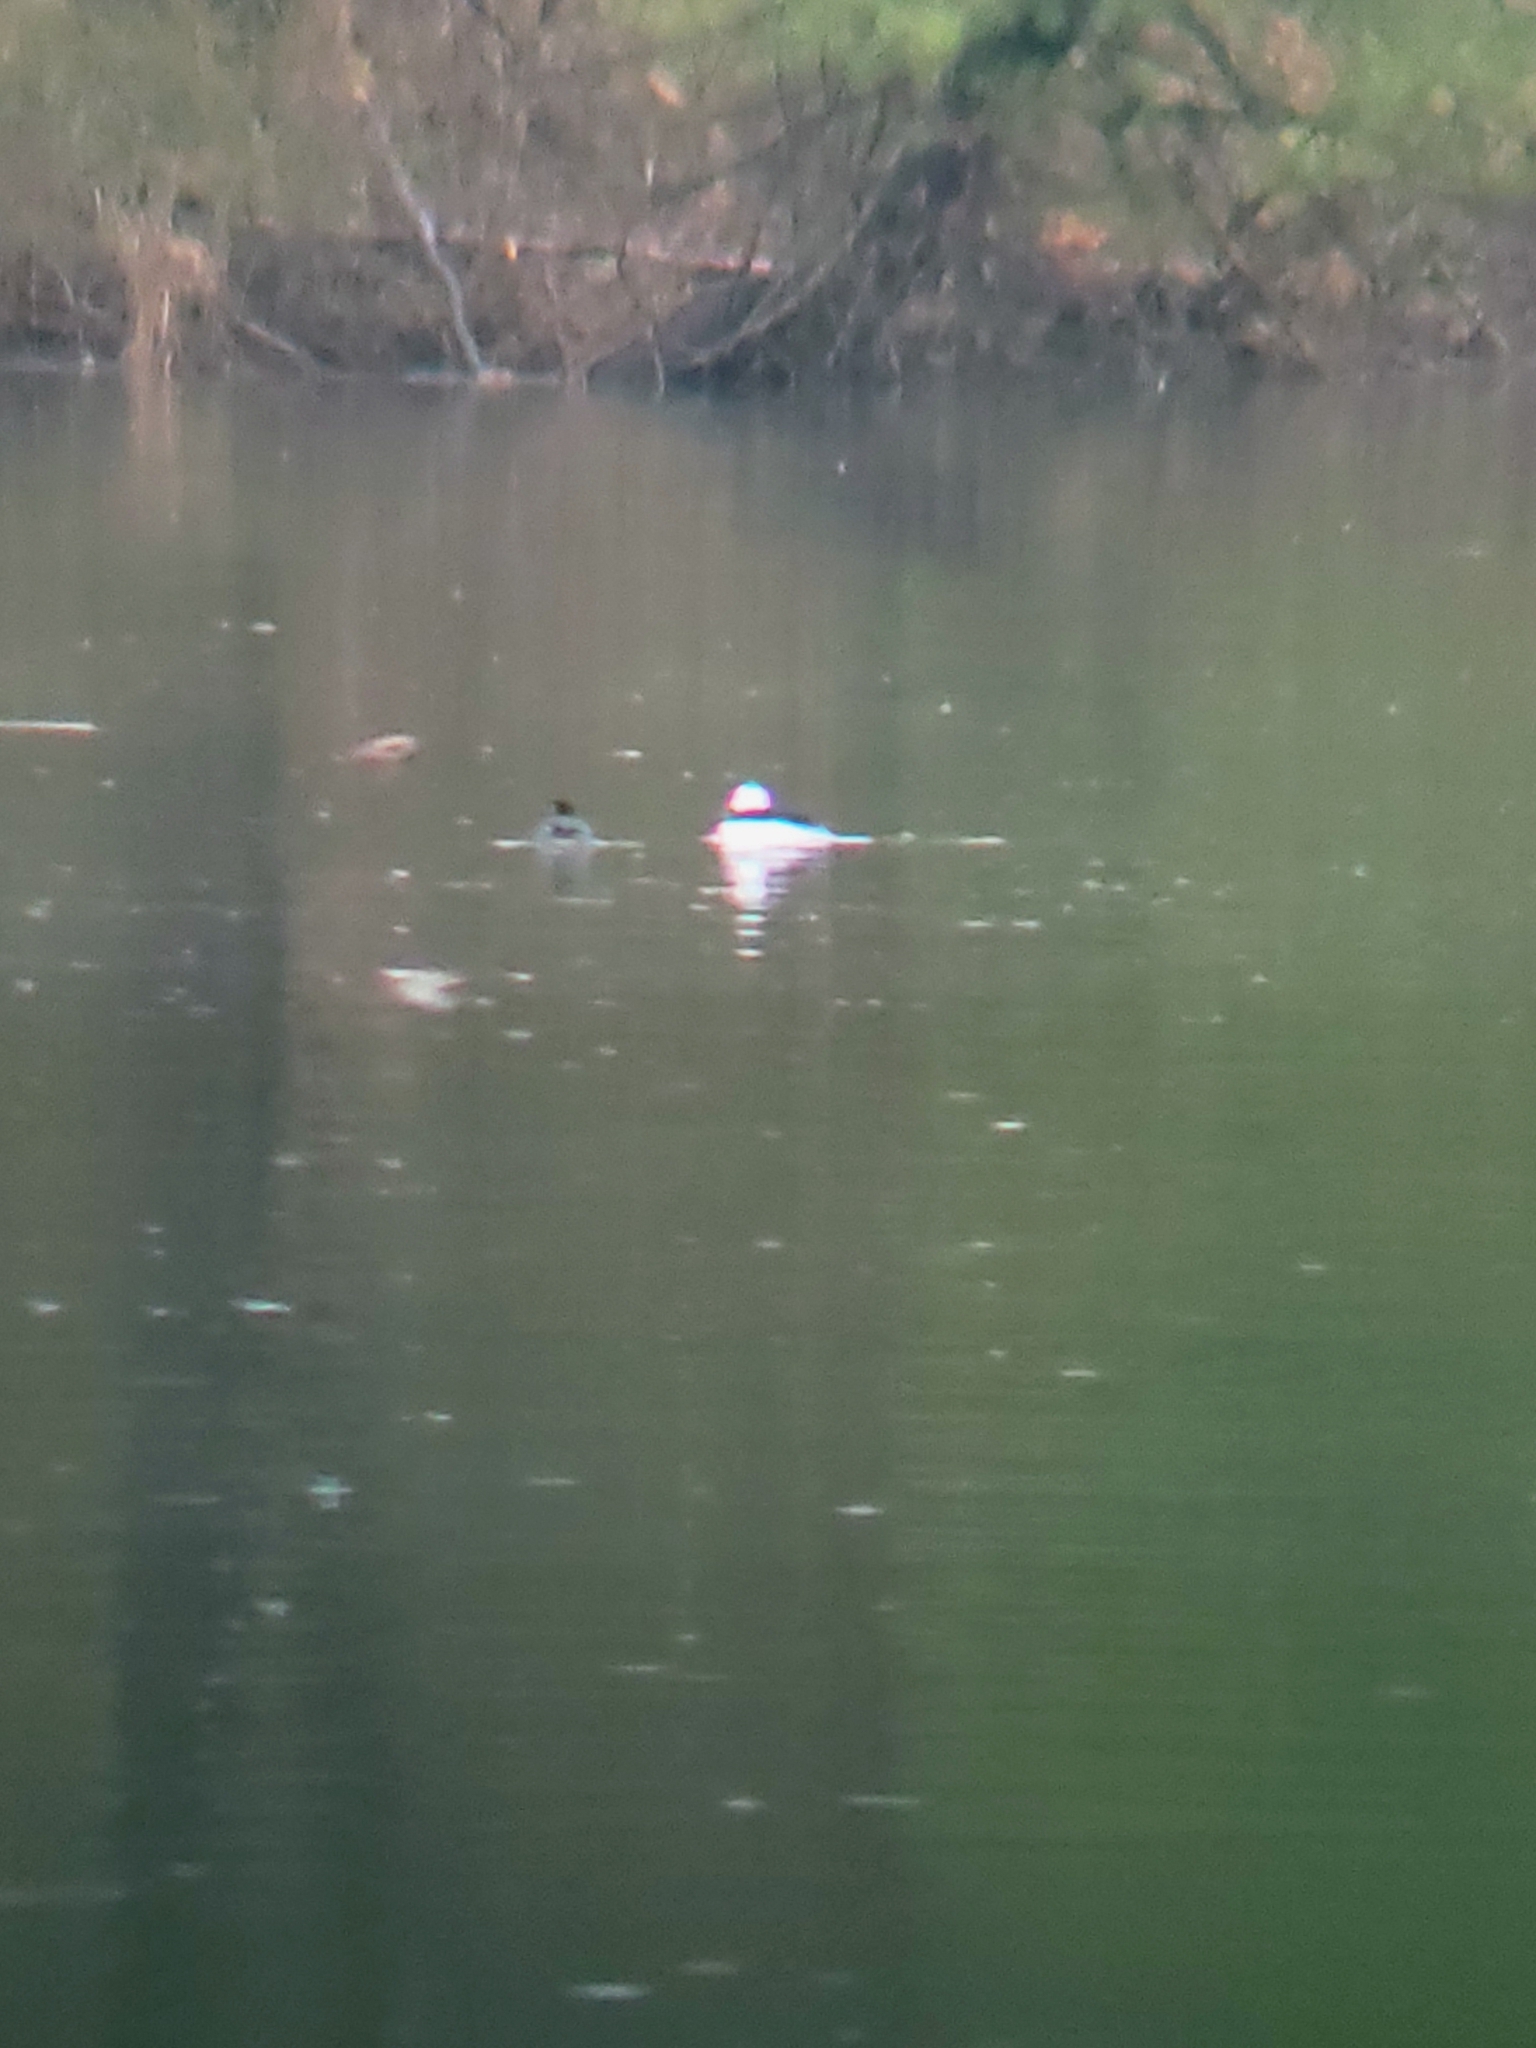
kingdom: Animalia
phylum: Chordata
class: Aves
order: Anseriformes
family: Anatidae
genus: Bucephala
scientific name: Bucephala albeola
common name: Bufflehead
